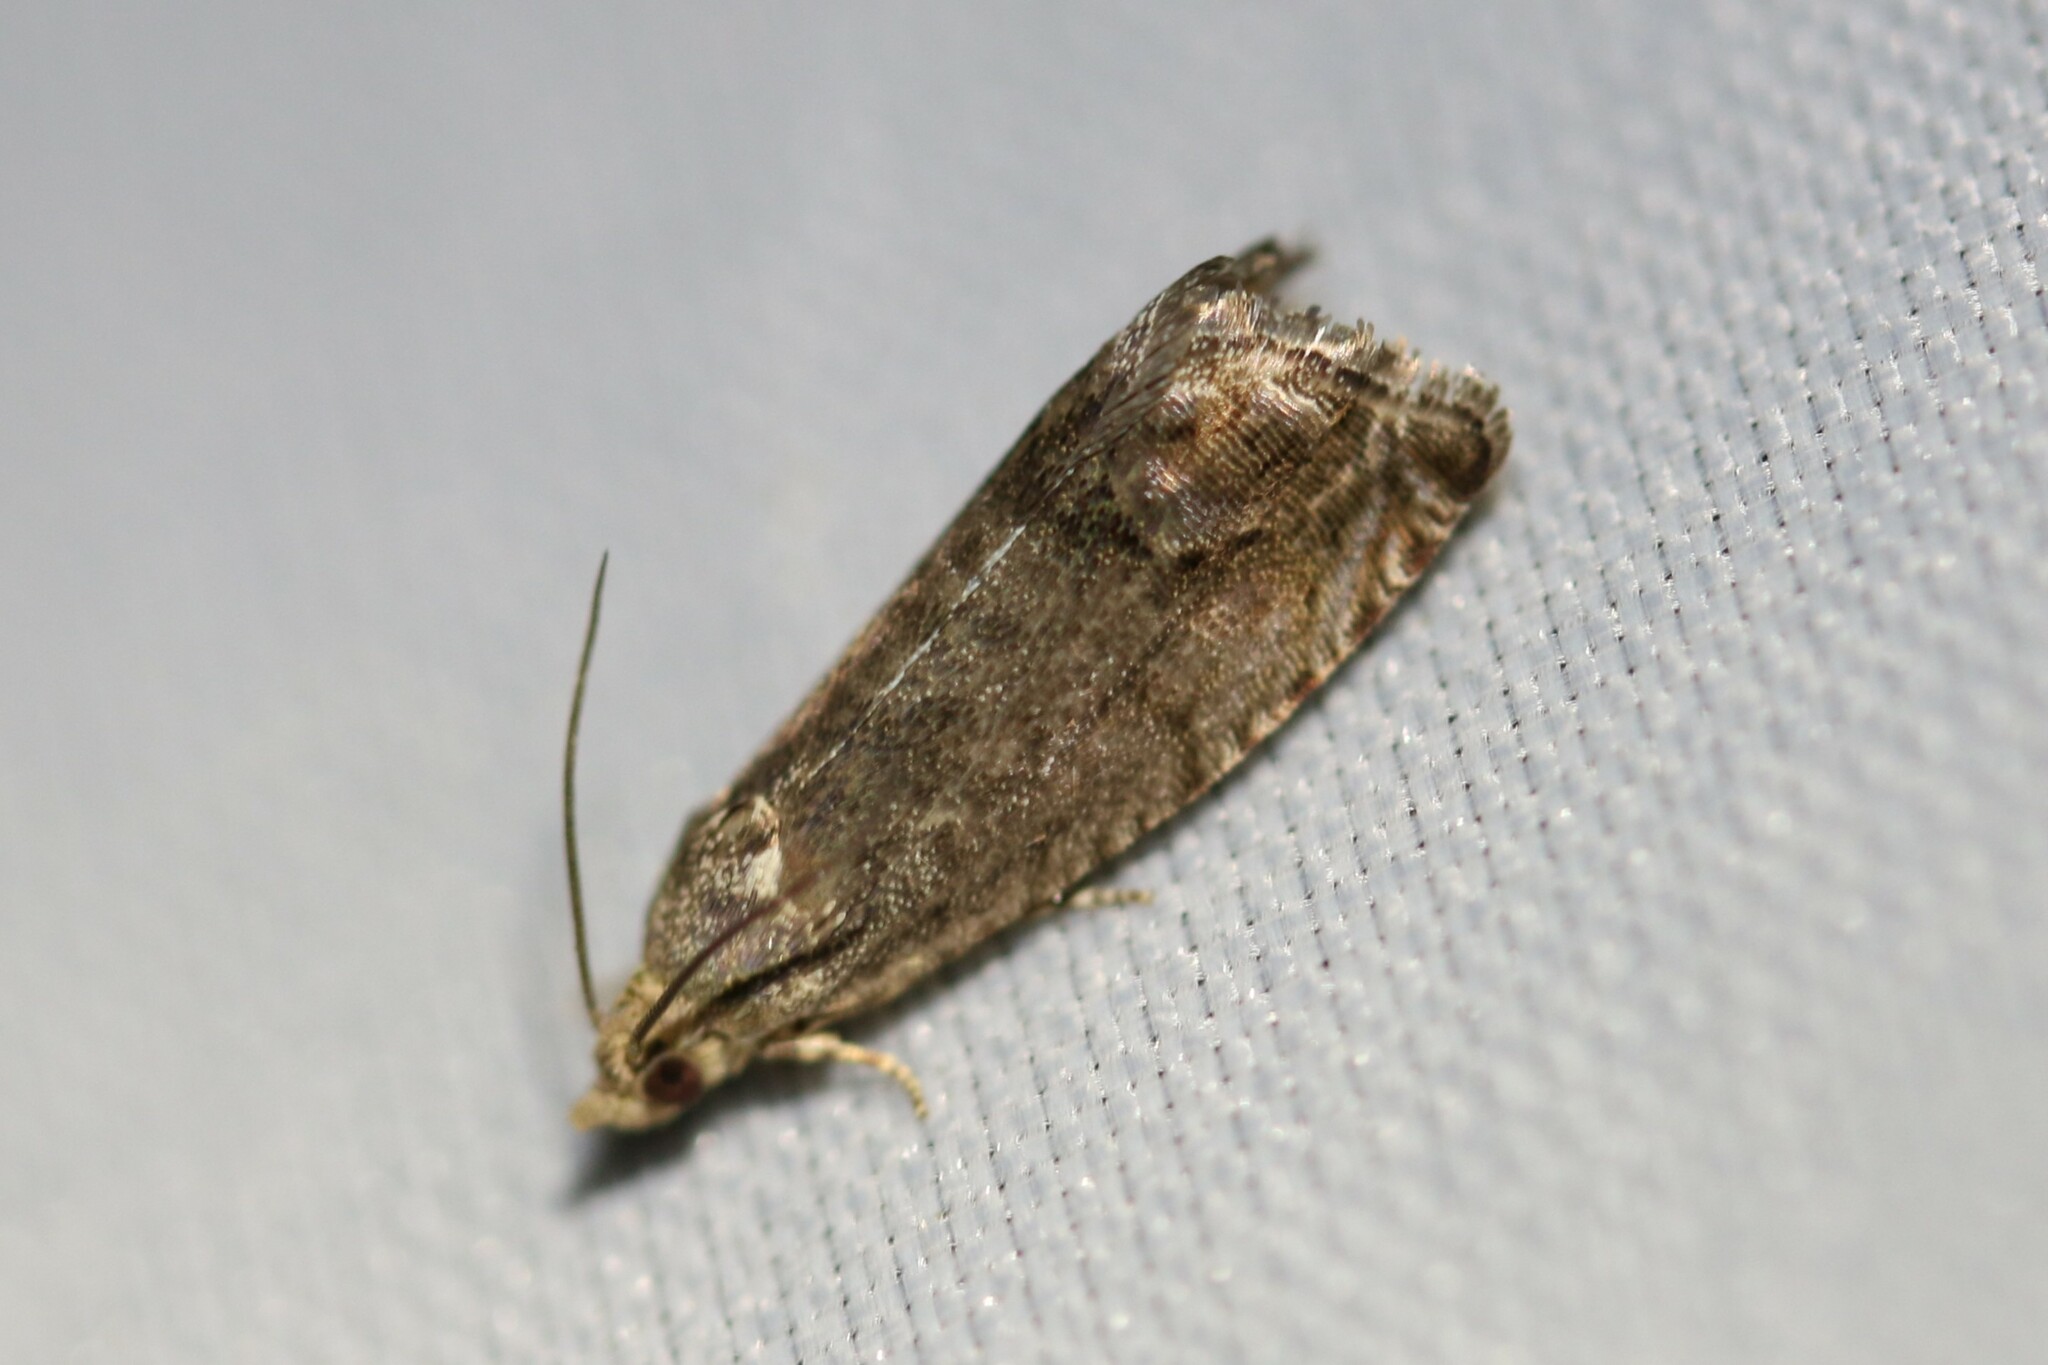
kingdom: Animalia
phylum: Arthropoda
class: Insecta
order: Lepidoptera
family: Tortricidae
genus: Cydia
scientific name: Cydia splendana
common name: De: kastanienwickler, eichenwickler es: oruga de la castaña fr: carpocapse des châtaignes it: cidia o tortrice tardiva delle castagne pt: bichado das castanhas gb: acorn moth, chestnut fruit tortrix
